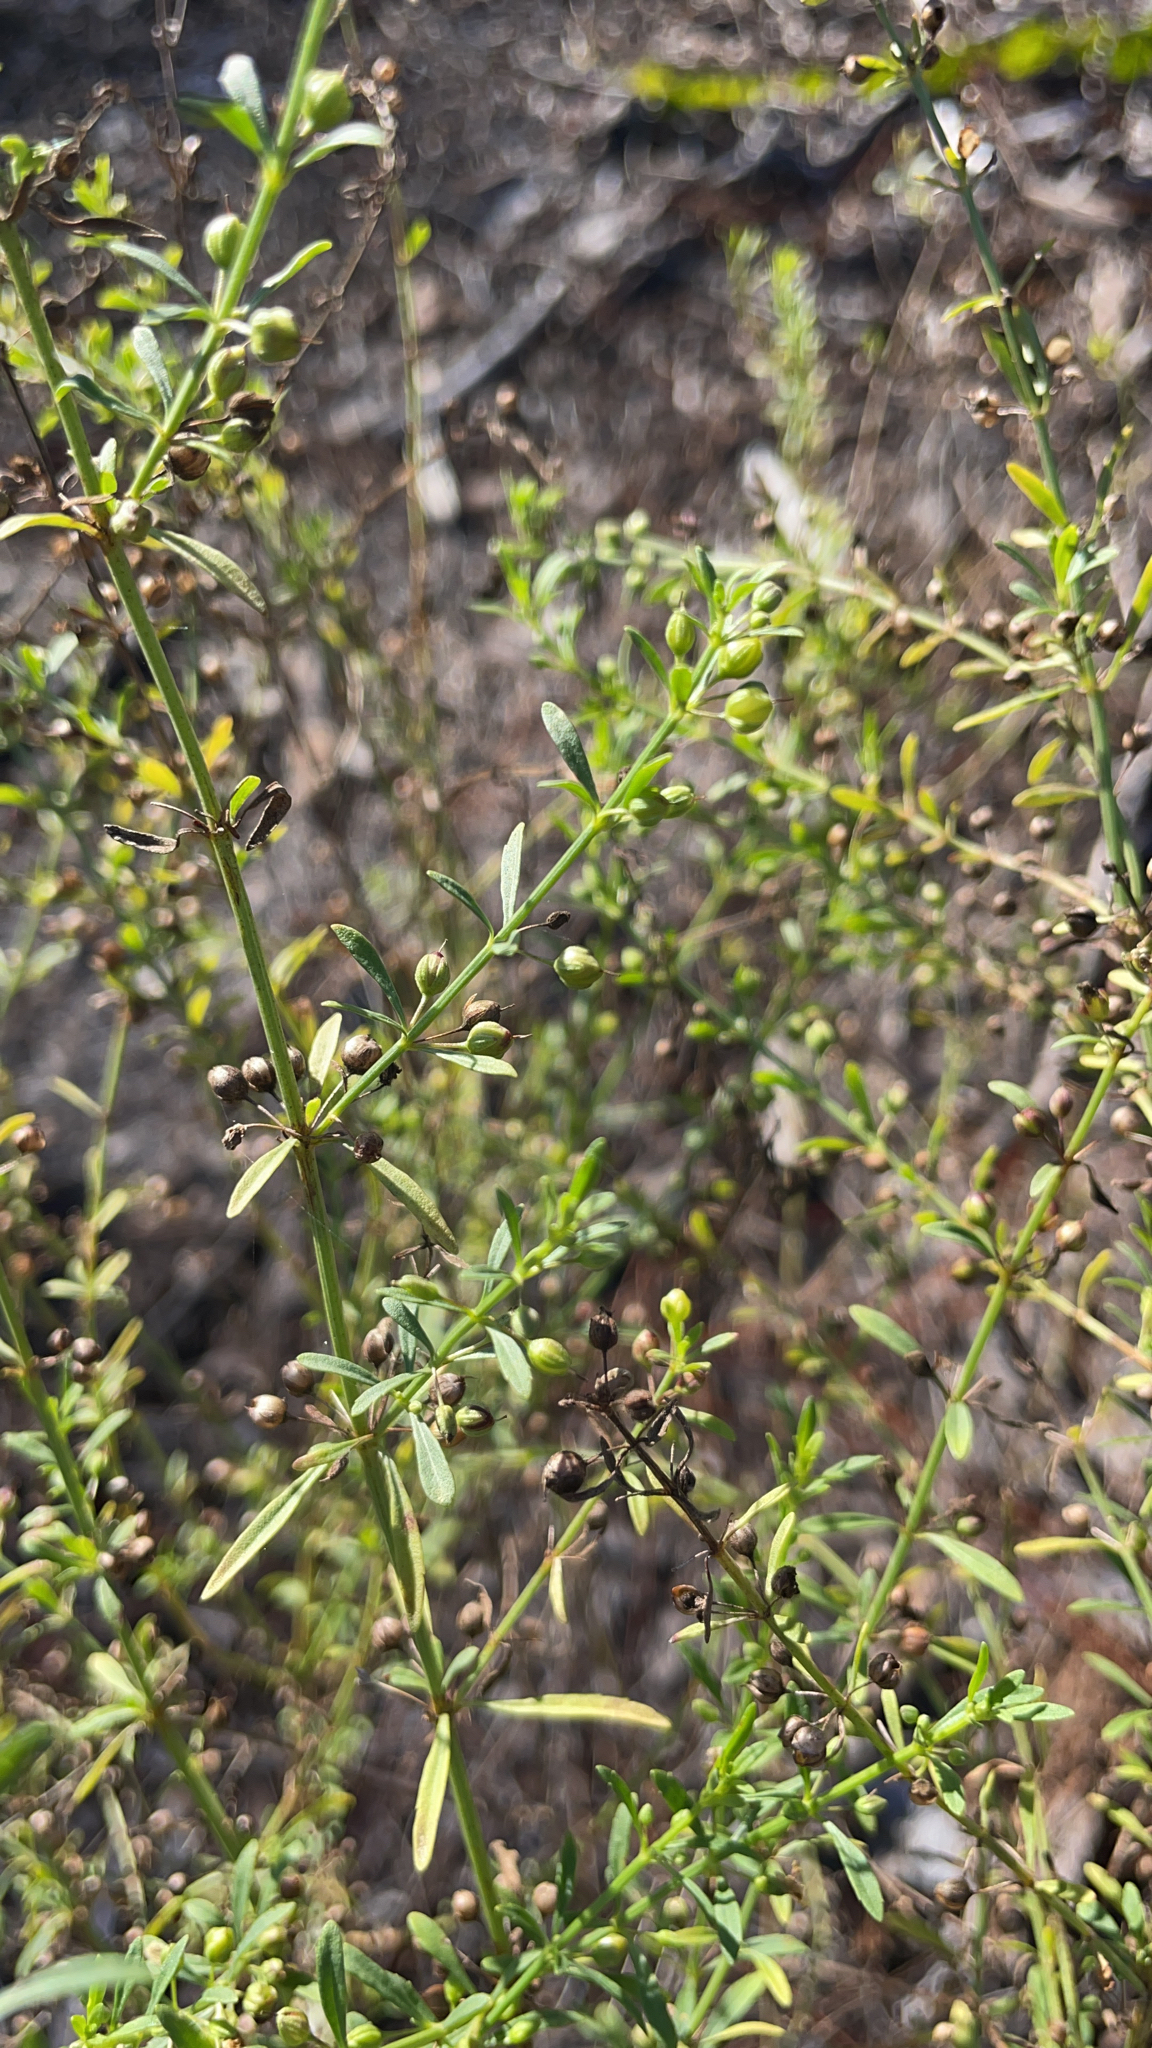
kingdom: Plantae
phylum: Tracheophyta
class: Magnoliopsida
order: Lamiales
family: Plantaginaceae
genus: Scoparia
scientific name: Scoparia dulcis
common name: Scoparia-weed
